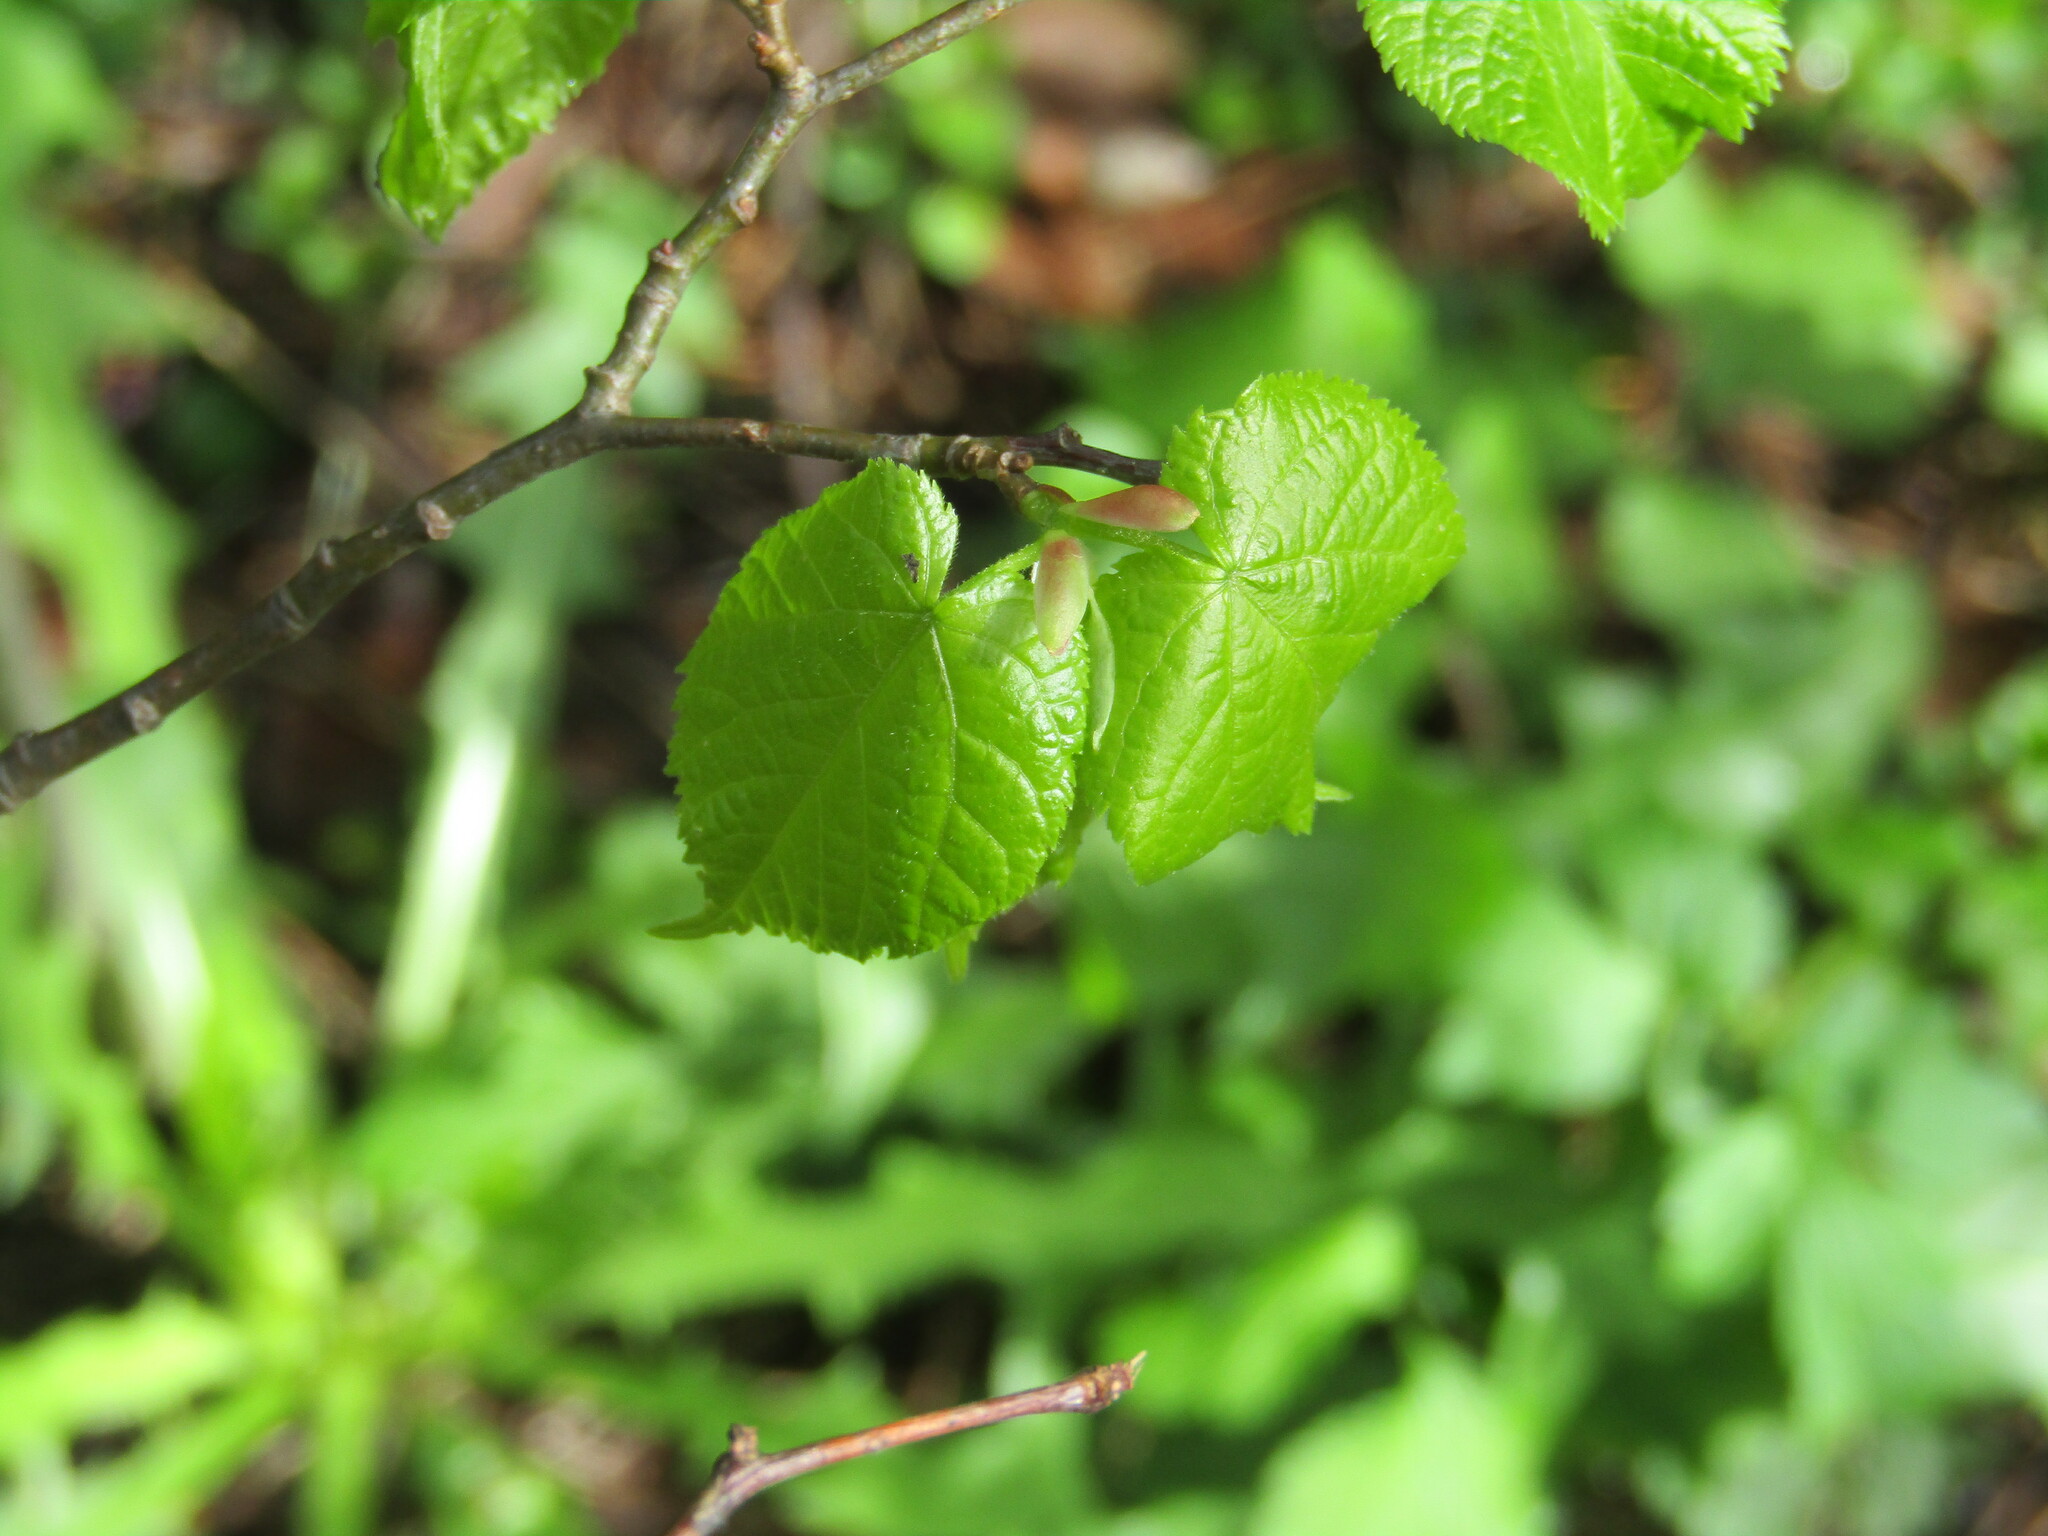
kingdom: Plantae
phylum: Tracheophyta
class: Magnoliopsida
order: Malvales
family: Malvaceae
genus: Tilia
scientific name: Tilia cordata
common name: Small-leaved lime
